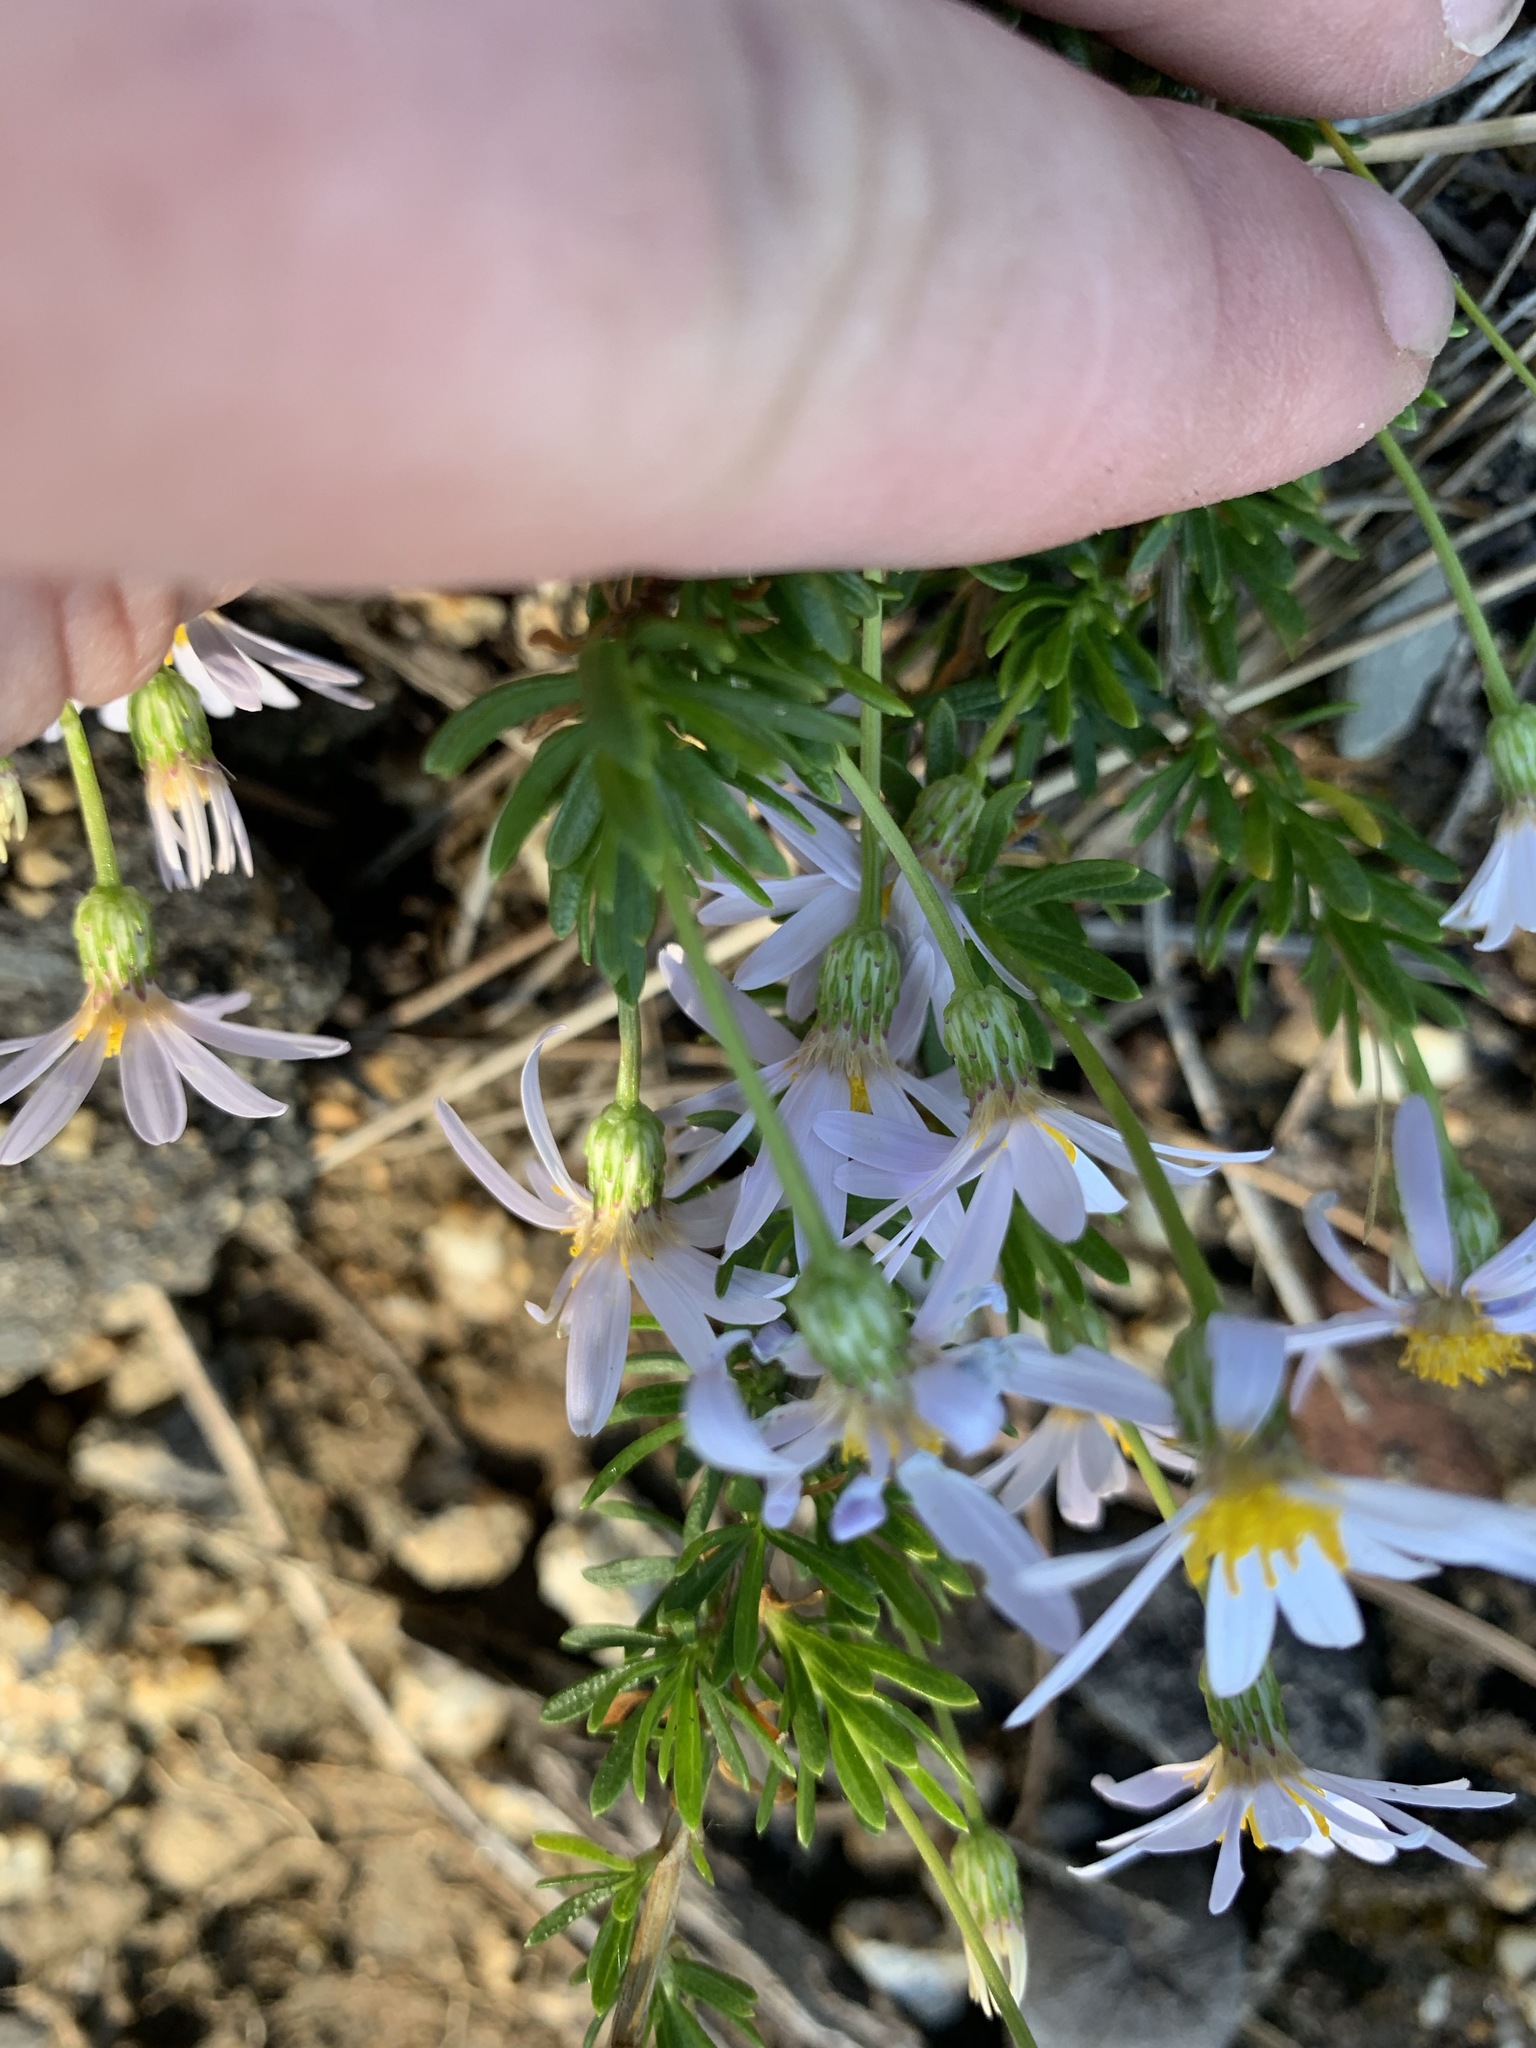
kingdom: Plantae
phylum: Tracheophyta
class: Magnoliopsida
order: Asterales
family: Asteraceae
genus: Felicia
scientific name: Felicia fruticosa
